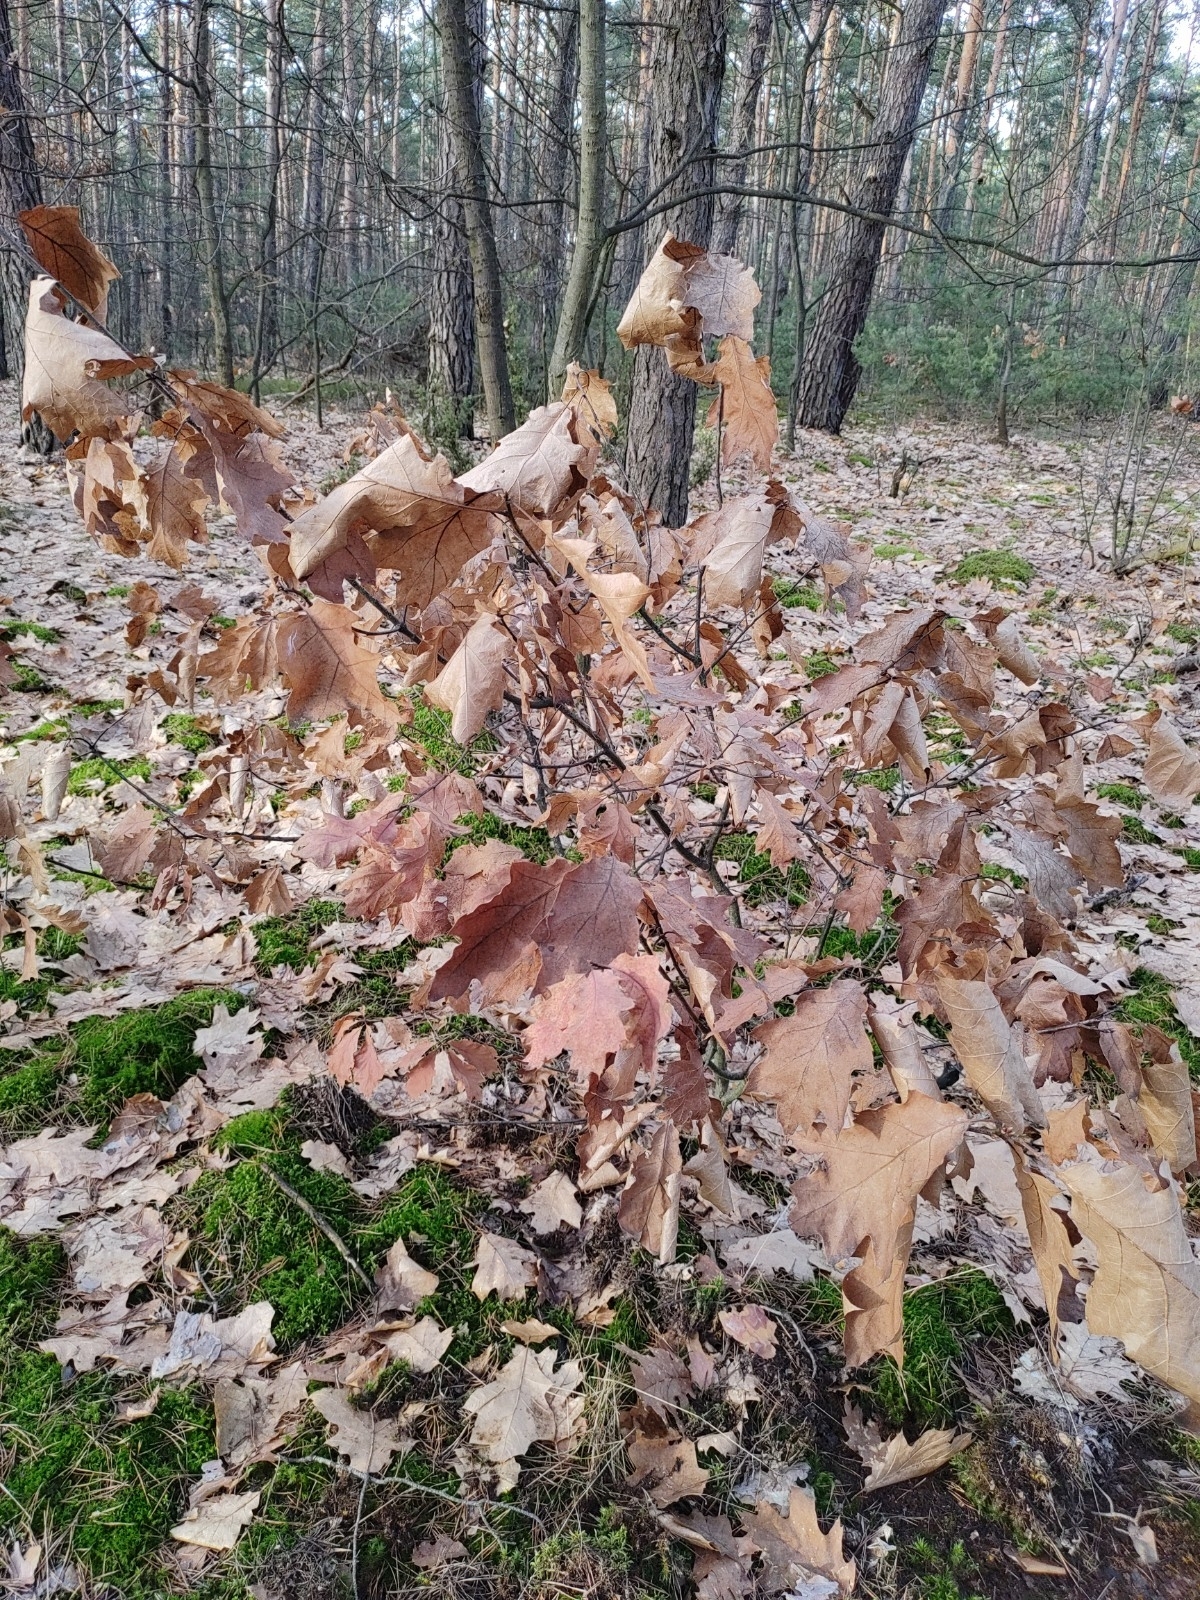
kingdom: Plantae
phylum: Tracheophyta
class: Magnoliopsida
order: Fagales
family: Fagaceae
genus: Quercus
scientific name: Quercus rubra
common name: Red oak
